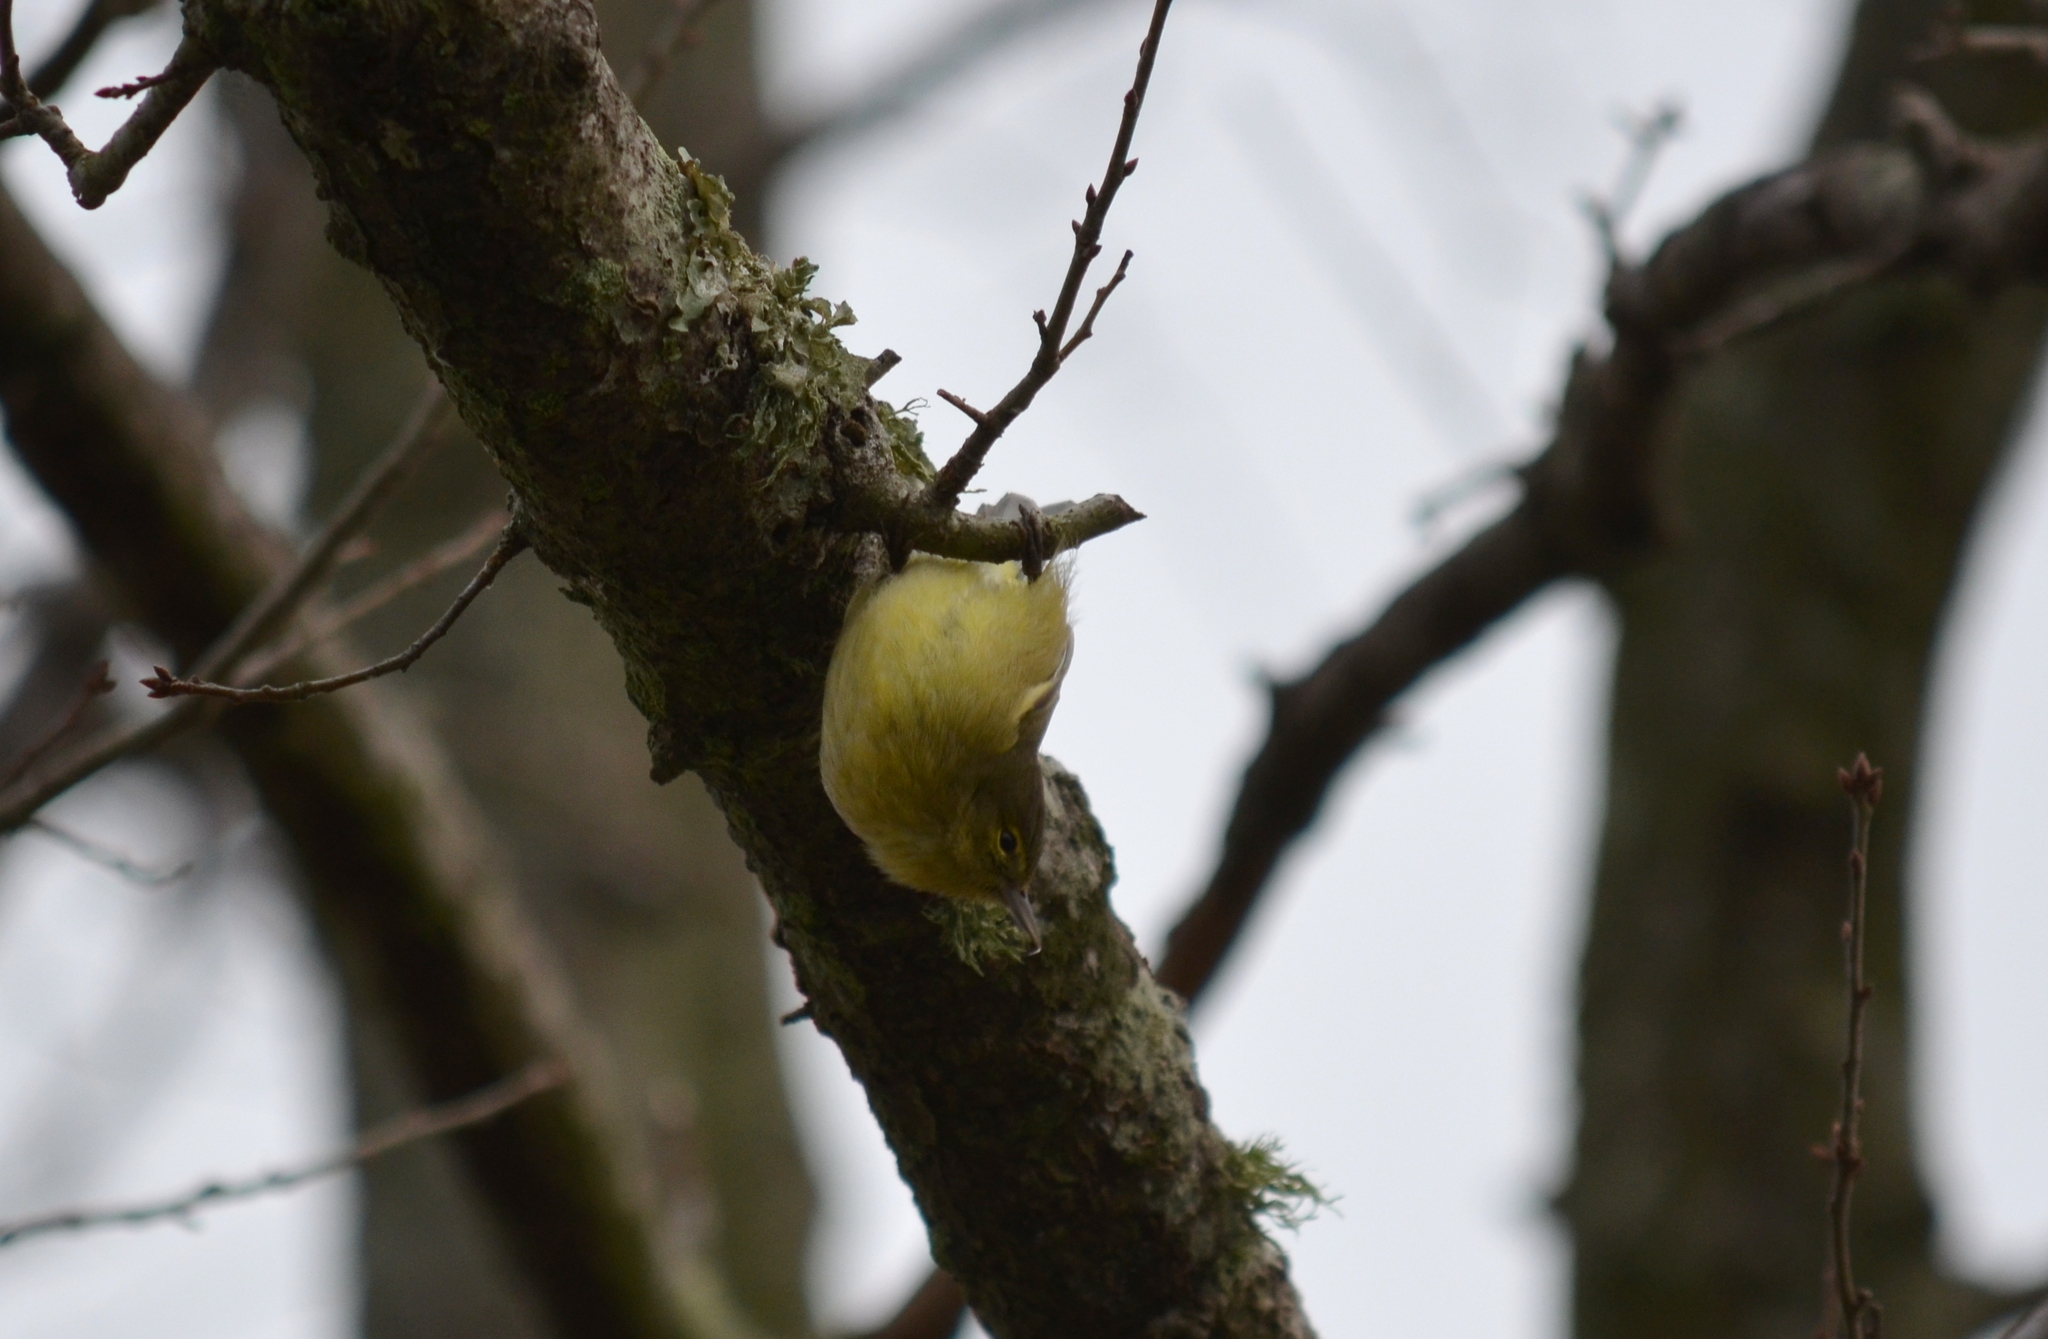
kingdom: Animalia
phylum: Chordata
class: Aves
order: Passeriformes
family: Parulidae
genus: Leiothlypis
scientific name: Leiothlypis celata
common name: Orange-crowned warbler
